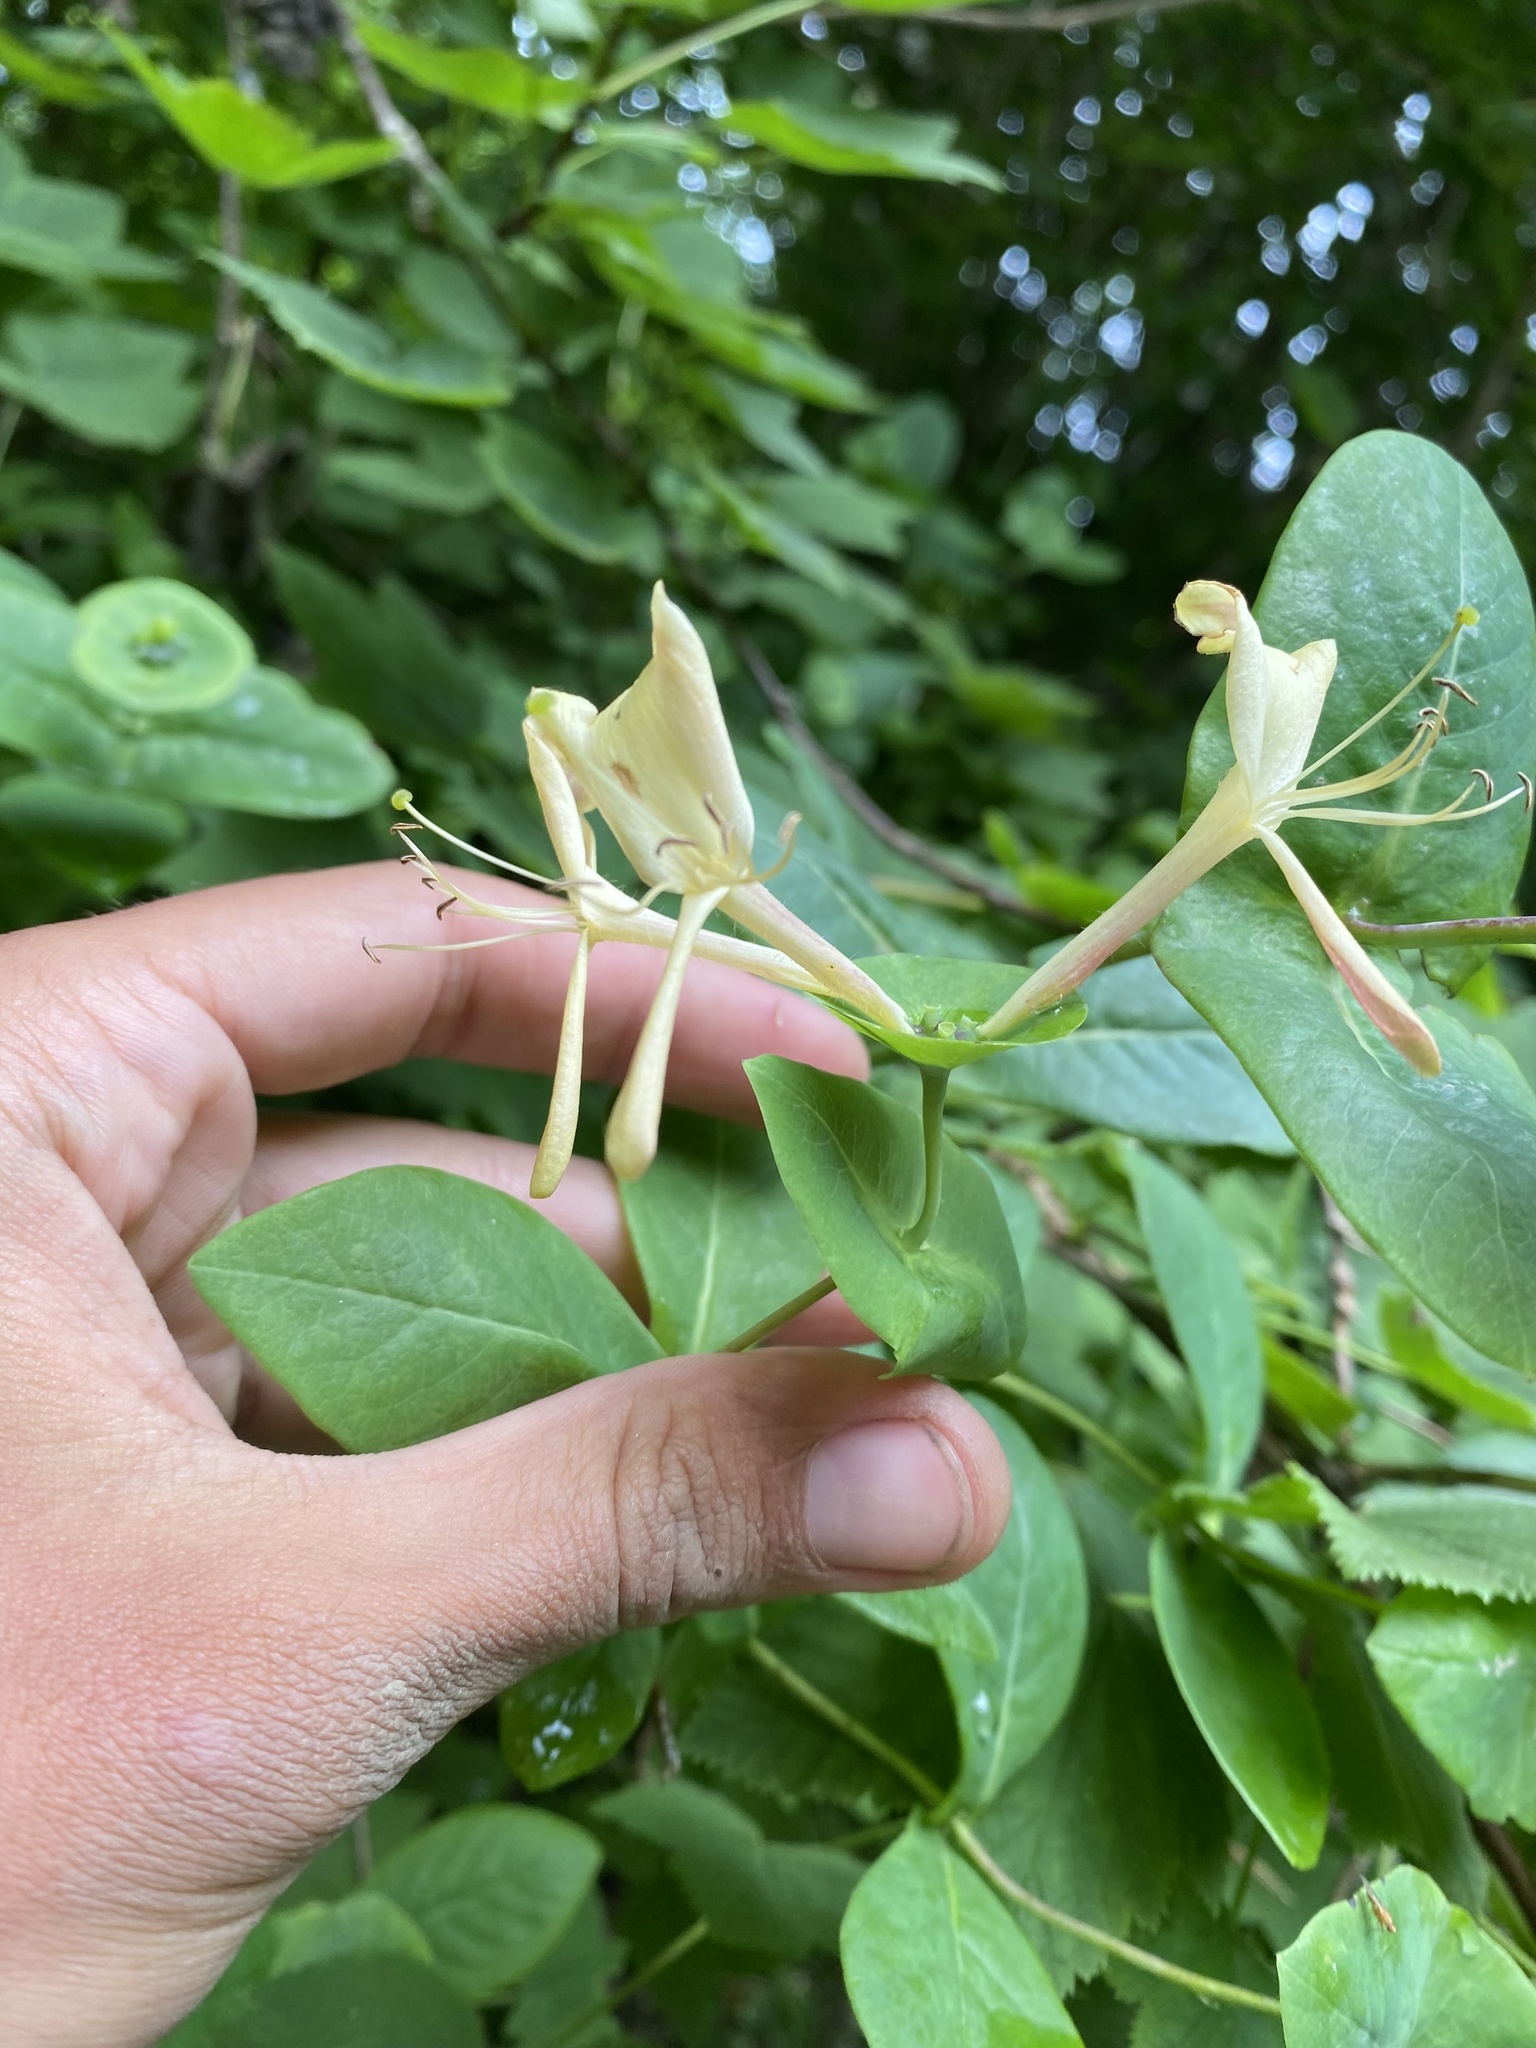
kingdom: Plantae
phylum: Tracheophyta
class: Magnoliopsida
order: Dipsacales
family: Caprifoliaceae
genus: Lonicera
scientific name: Lonicera caprifolium
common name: Perfoliate honeysuckle
